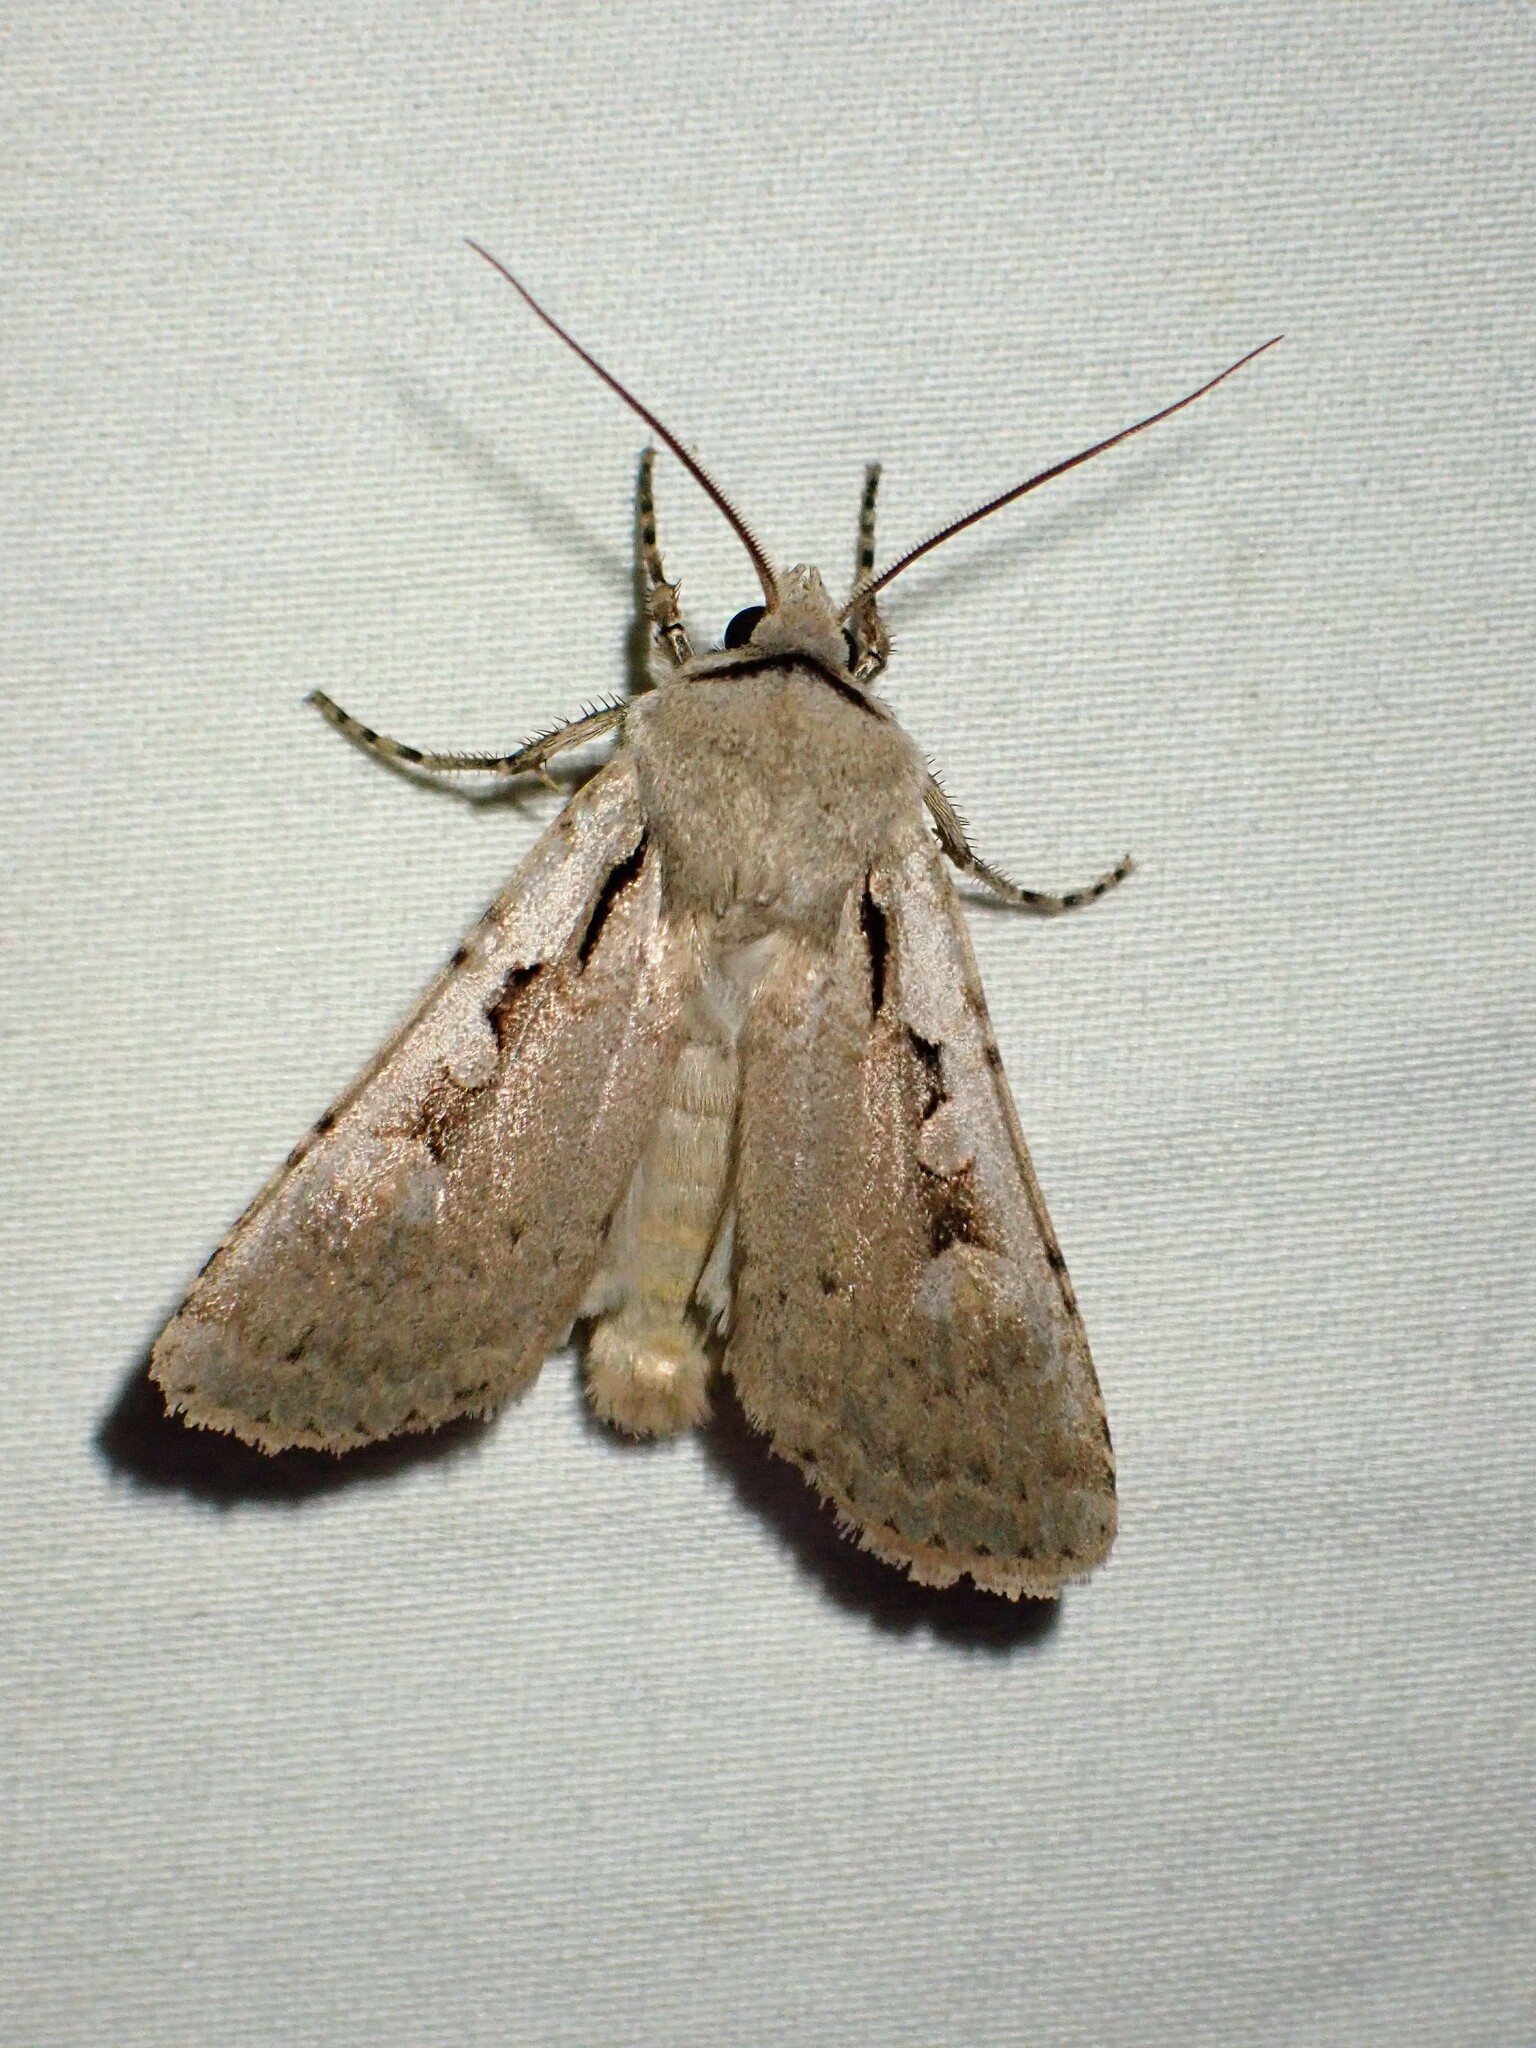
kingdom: Animalia
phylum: Arthropoda
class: Insecta
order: Lepidoptera
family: Noctuidae
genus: Euxoa
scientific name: Euxoa tristicula
